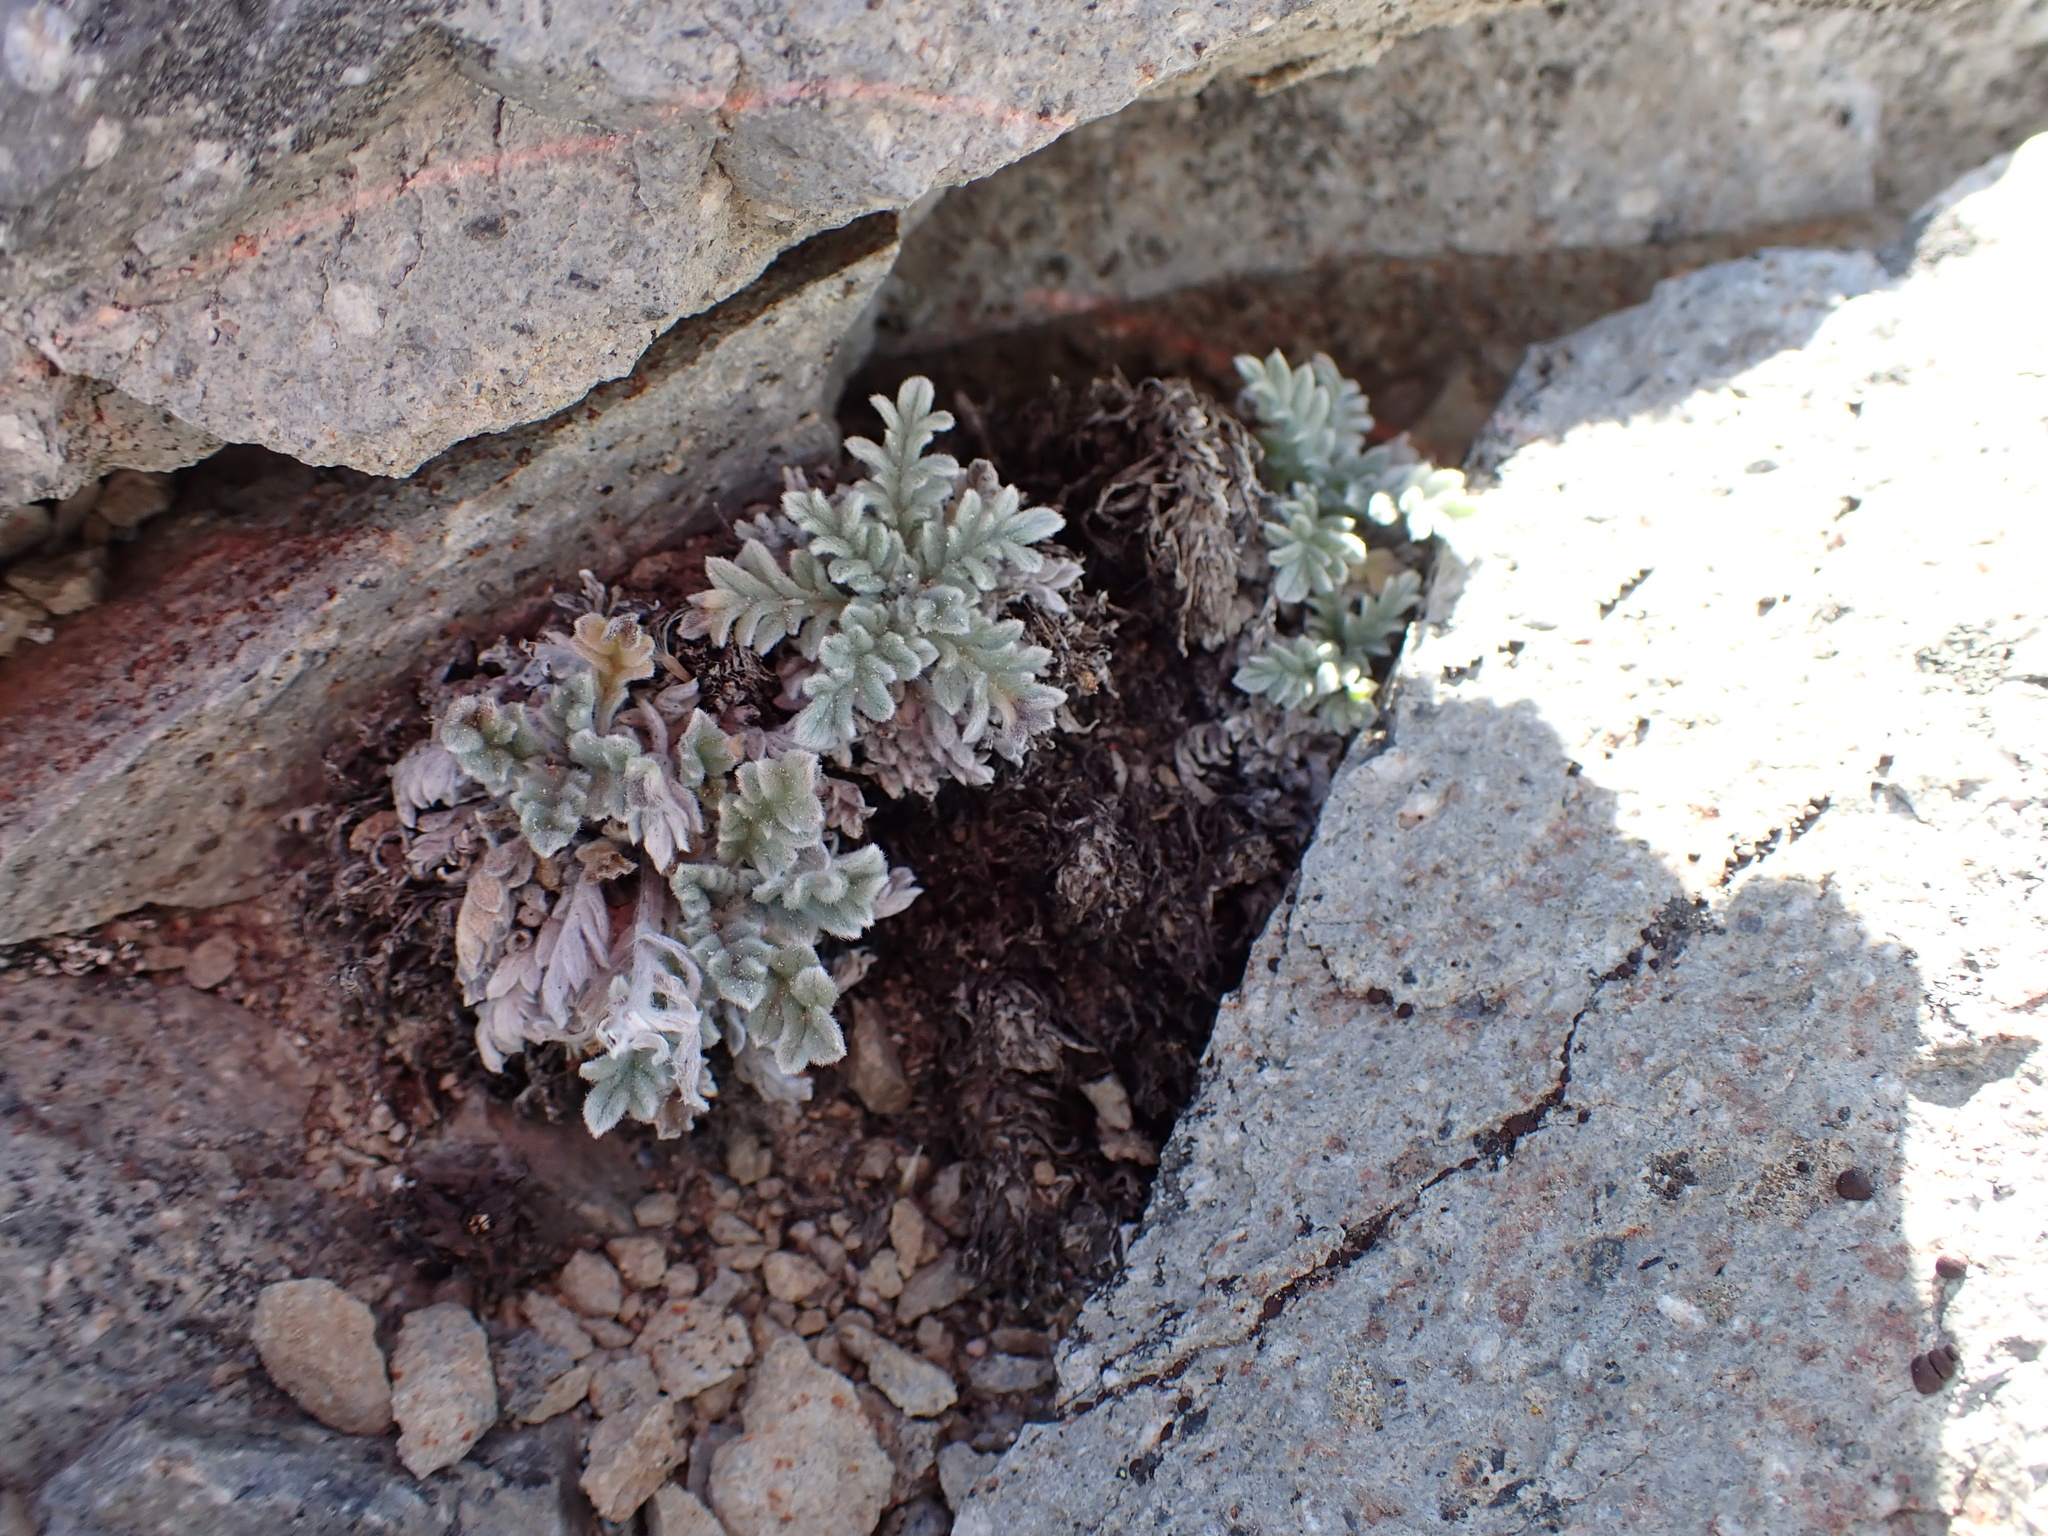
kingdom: Plantae
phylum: Tracheophyta
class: Magnoliopsida
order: Boraginales
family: Hydrophyllaceae
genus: Phacelia
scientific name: Phacelia sericea
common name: Silky phacelia
